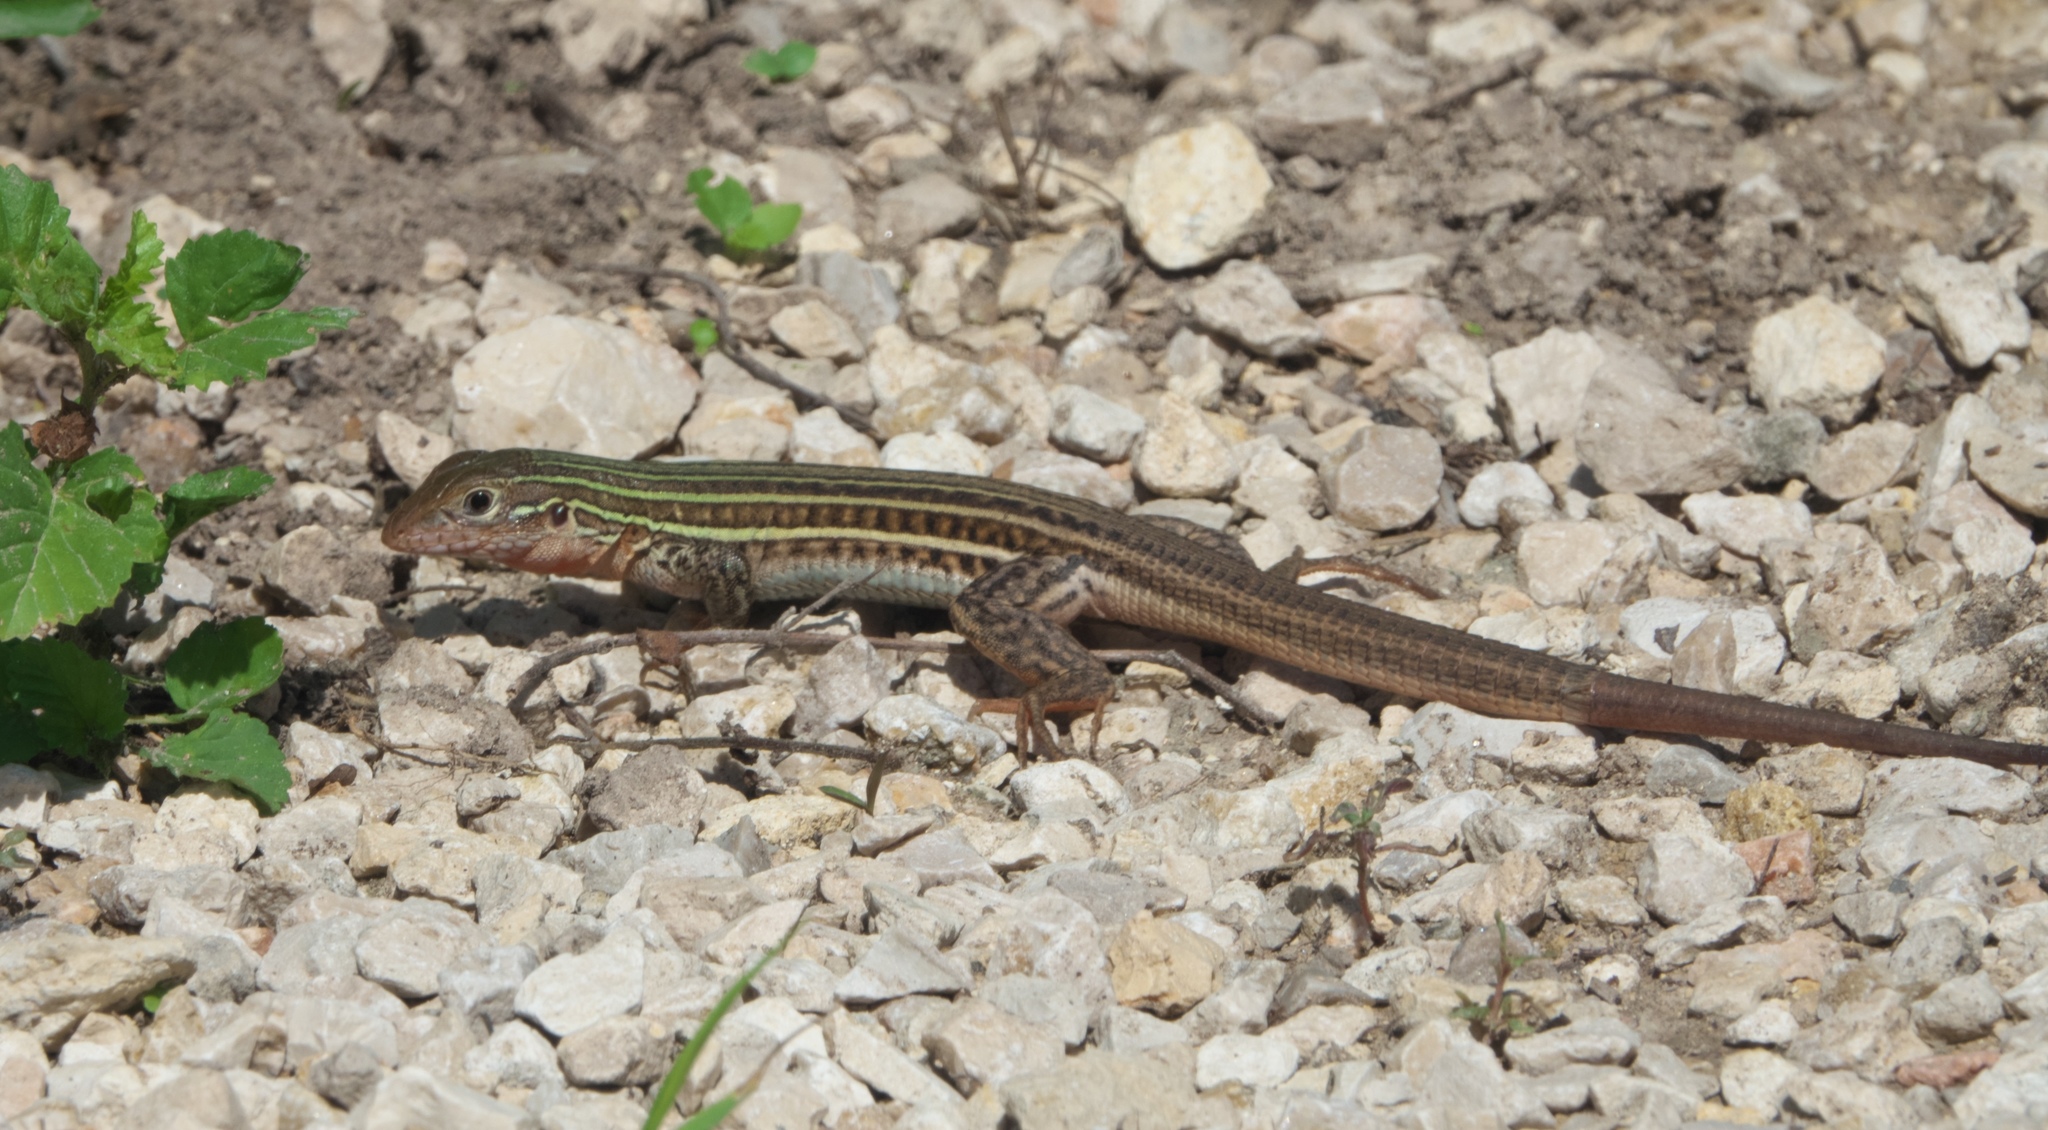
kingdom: Animalia
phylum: Chordata
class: Squamata
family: Teiidae
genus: Aspidoscelis
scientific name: Aspidoscelis gularis
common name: Eastern spotted whiptail
